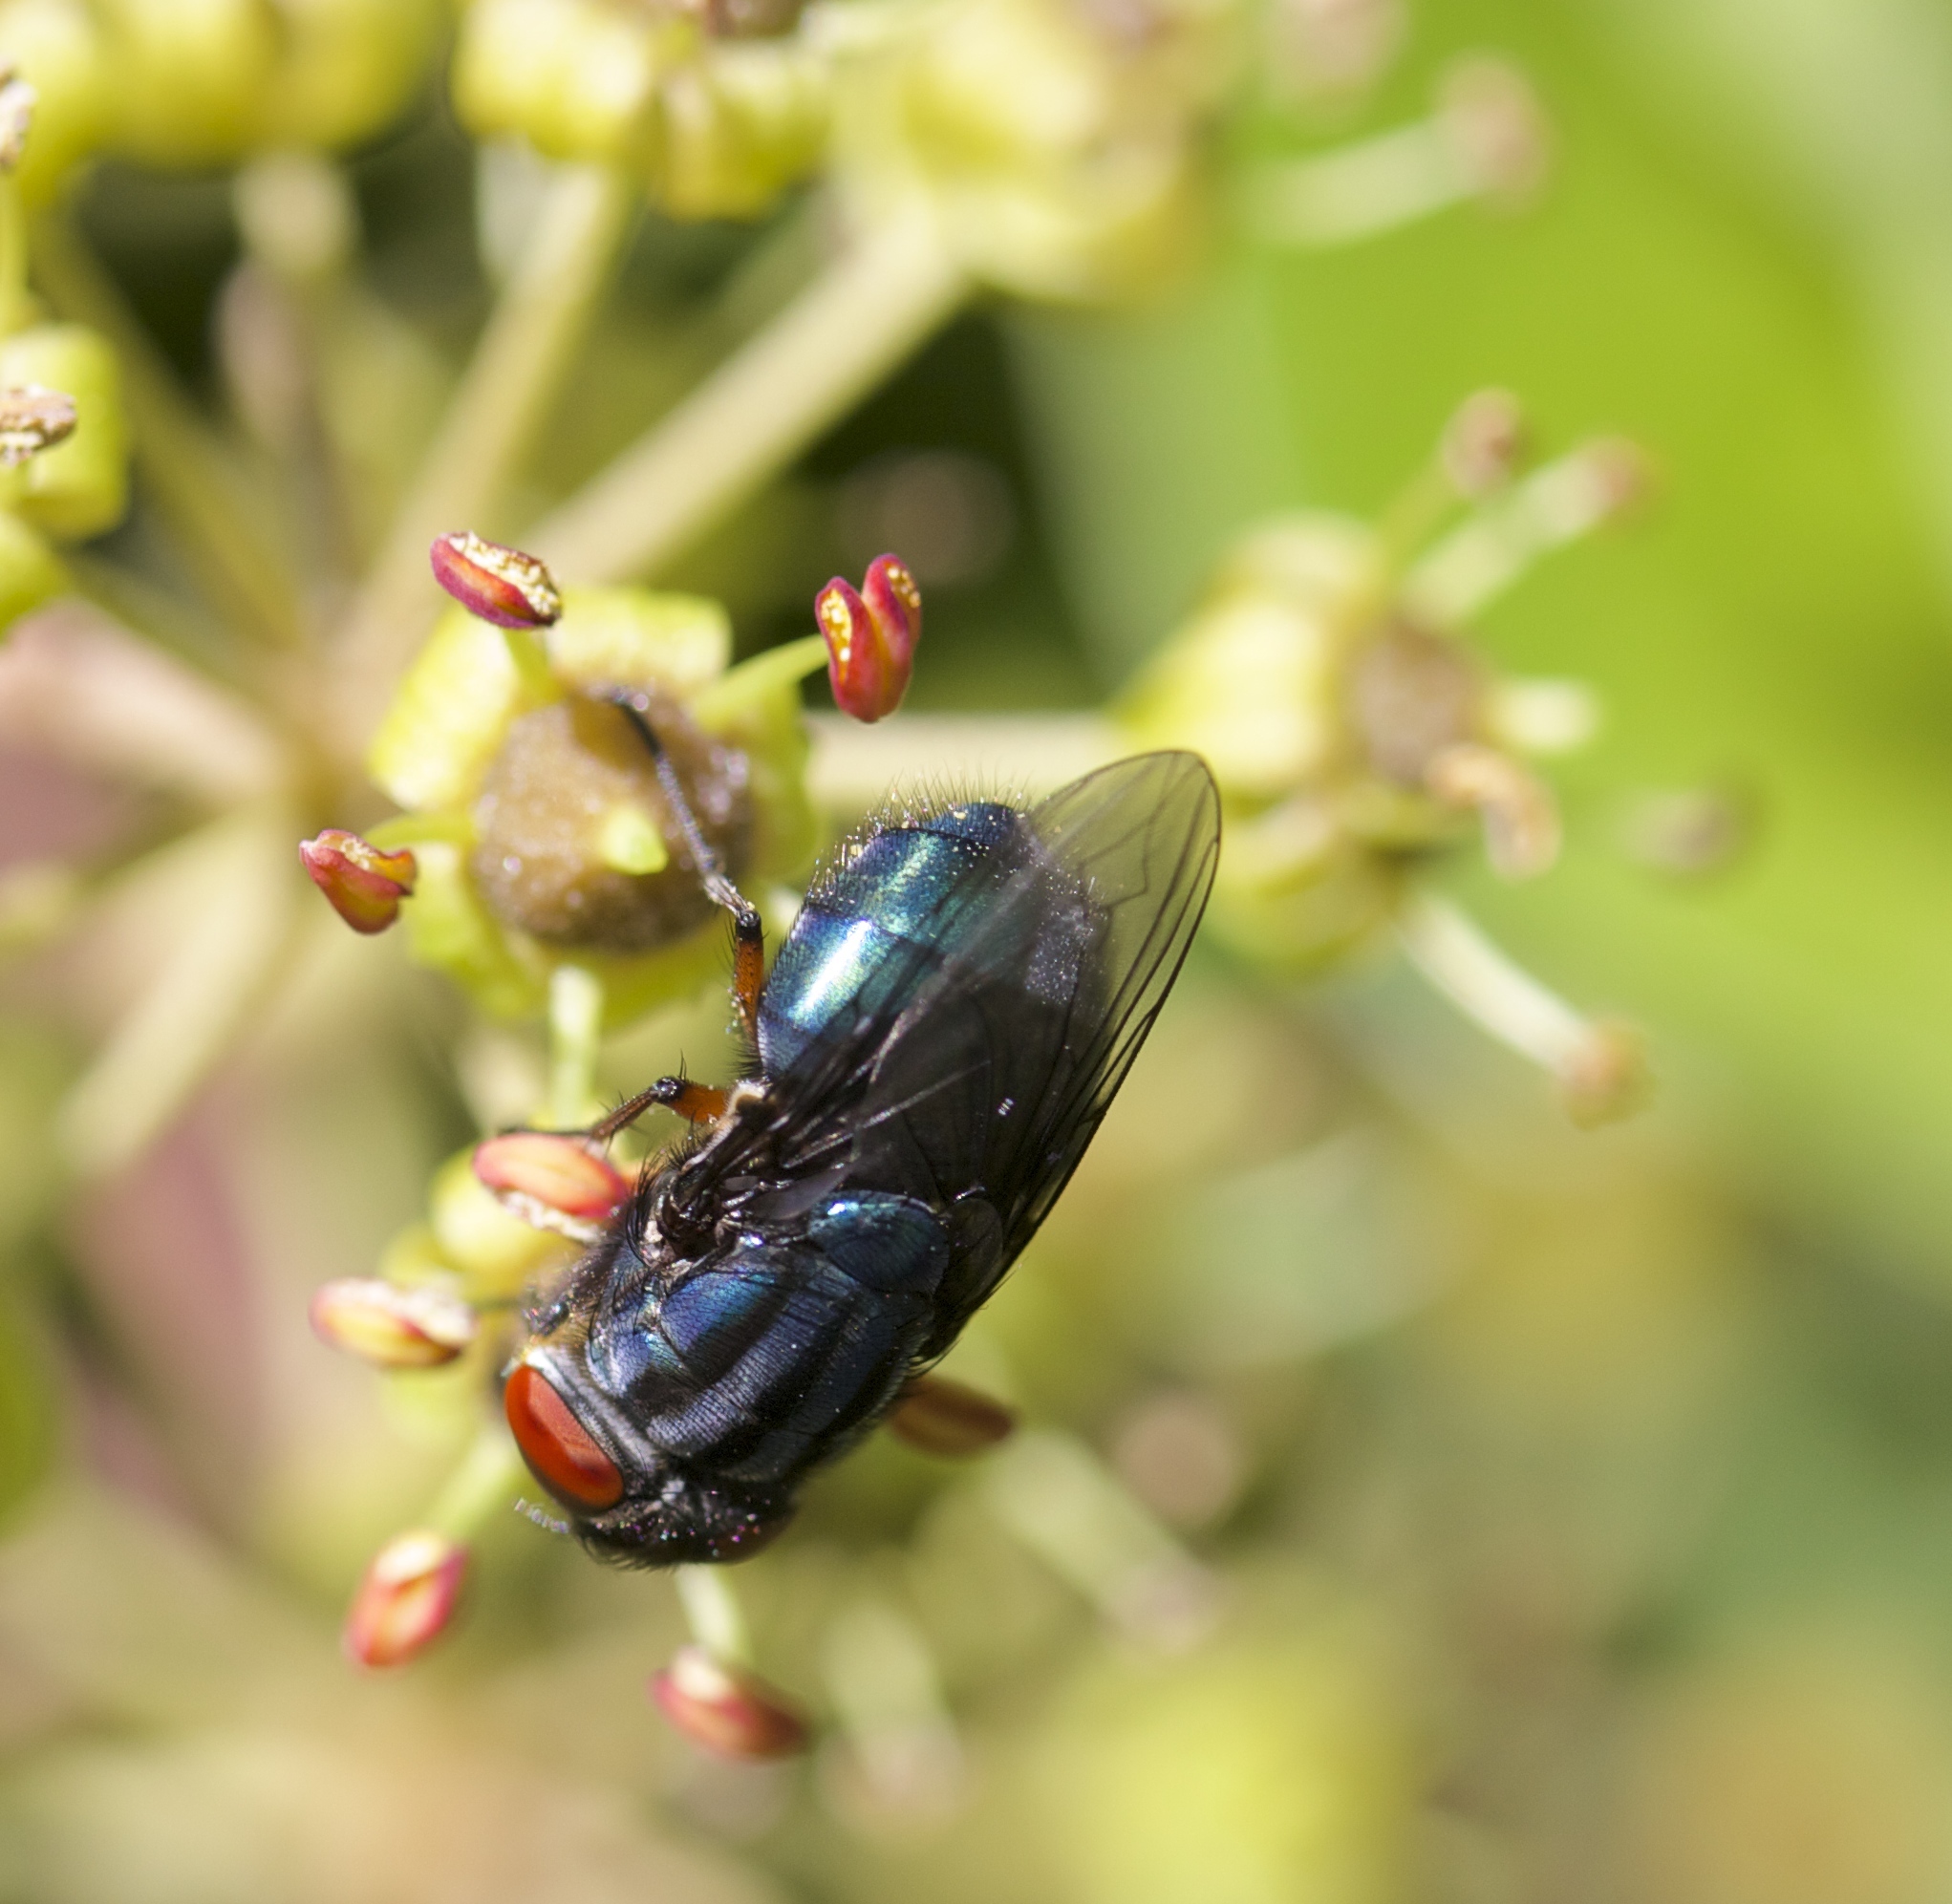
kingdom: Animalia
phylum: Arthropoda
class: Insecta
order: Diptera
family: Calliphoridae
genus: Compsomyiops
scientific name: Compsomyiops callipes
